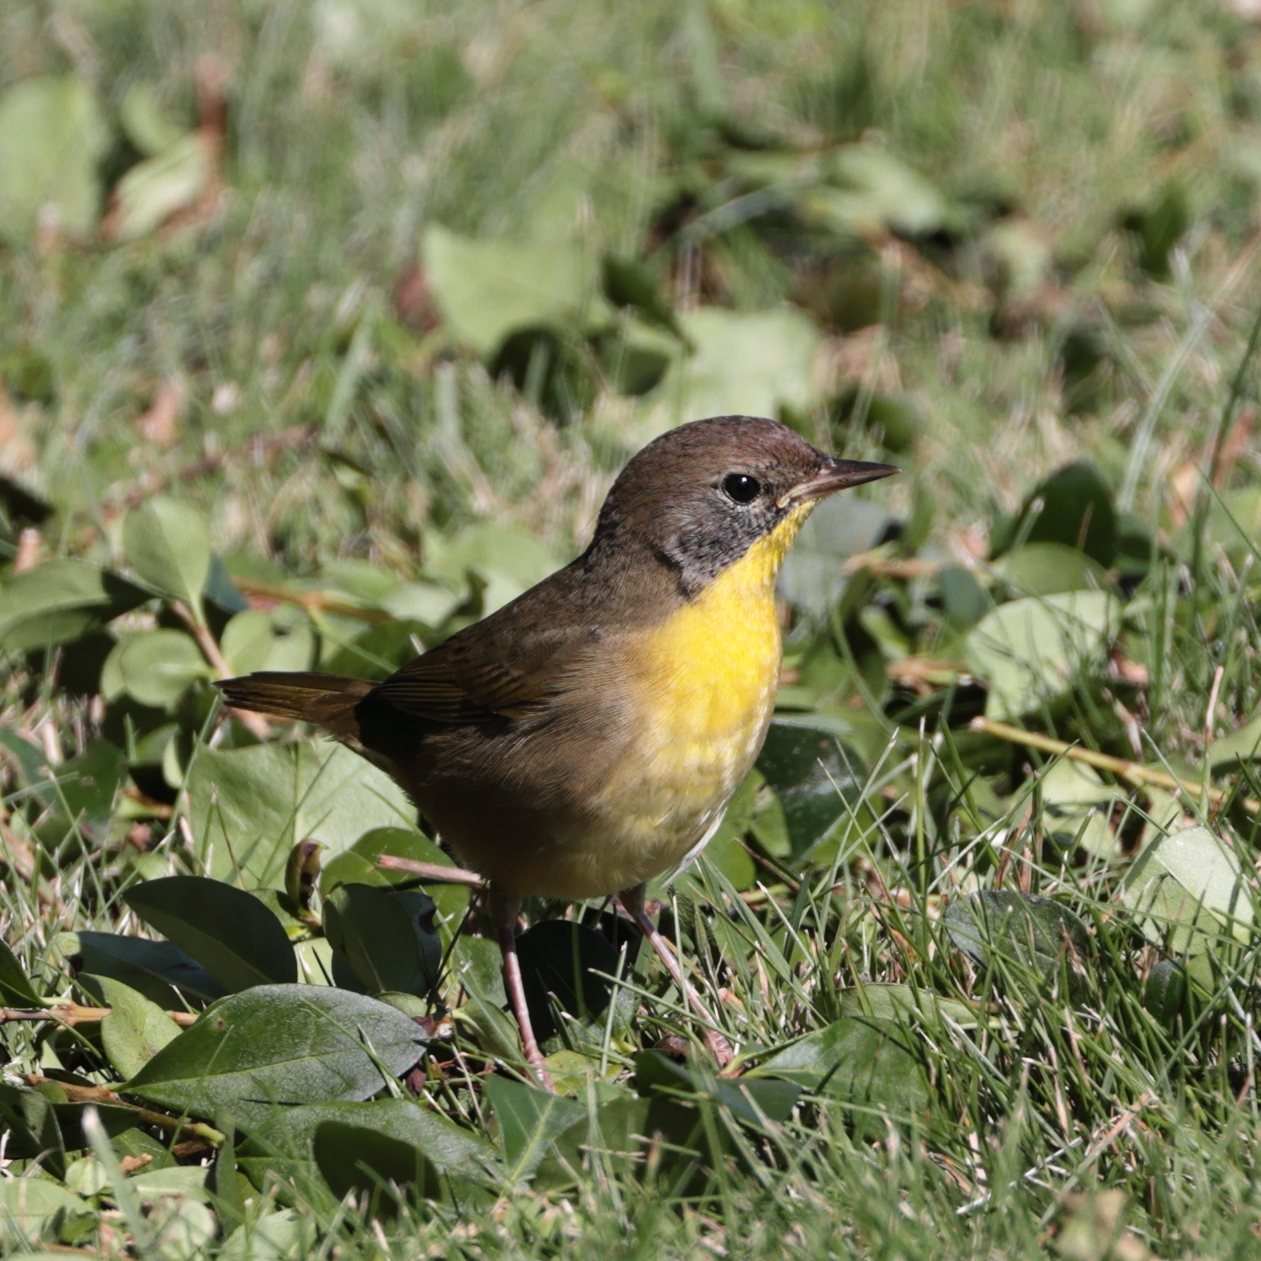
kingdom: Animalia
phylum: Chordata
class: Aves
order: Passeriformes
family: Parulidae
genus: Geothlypis
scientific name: Geothlypis trichas
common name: Common yellowthroat
